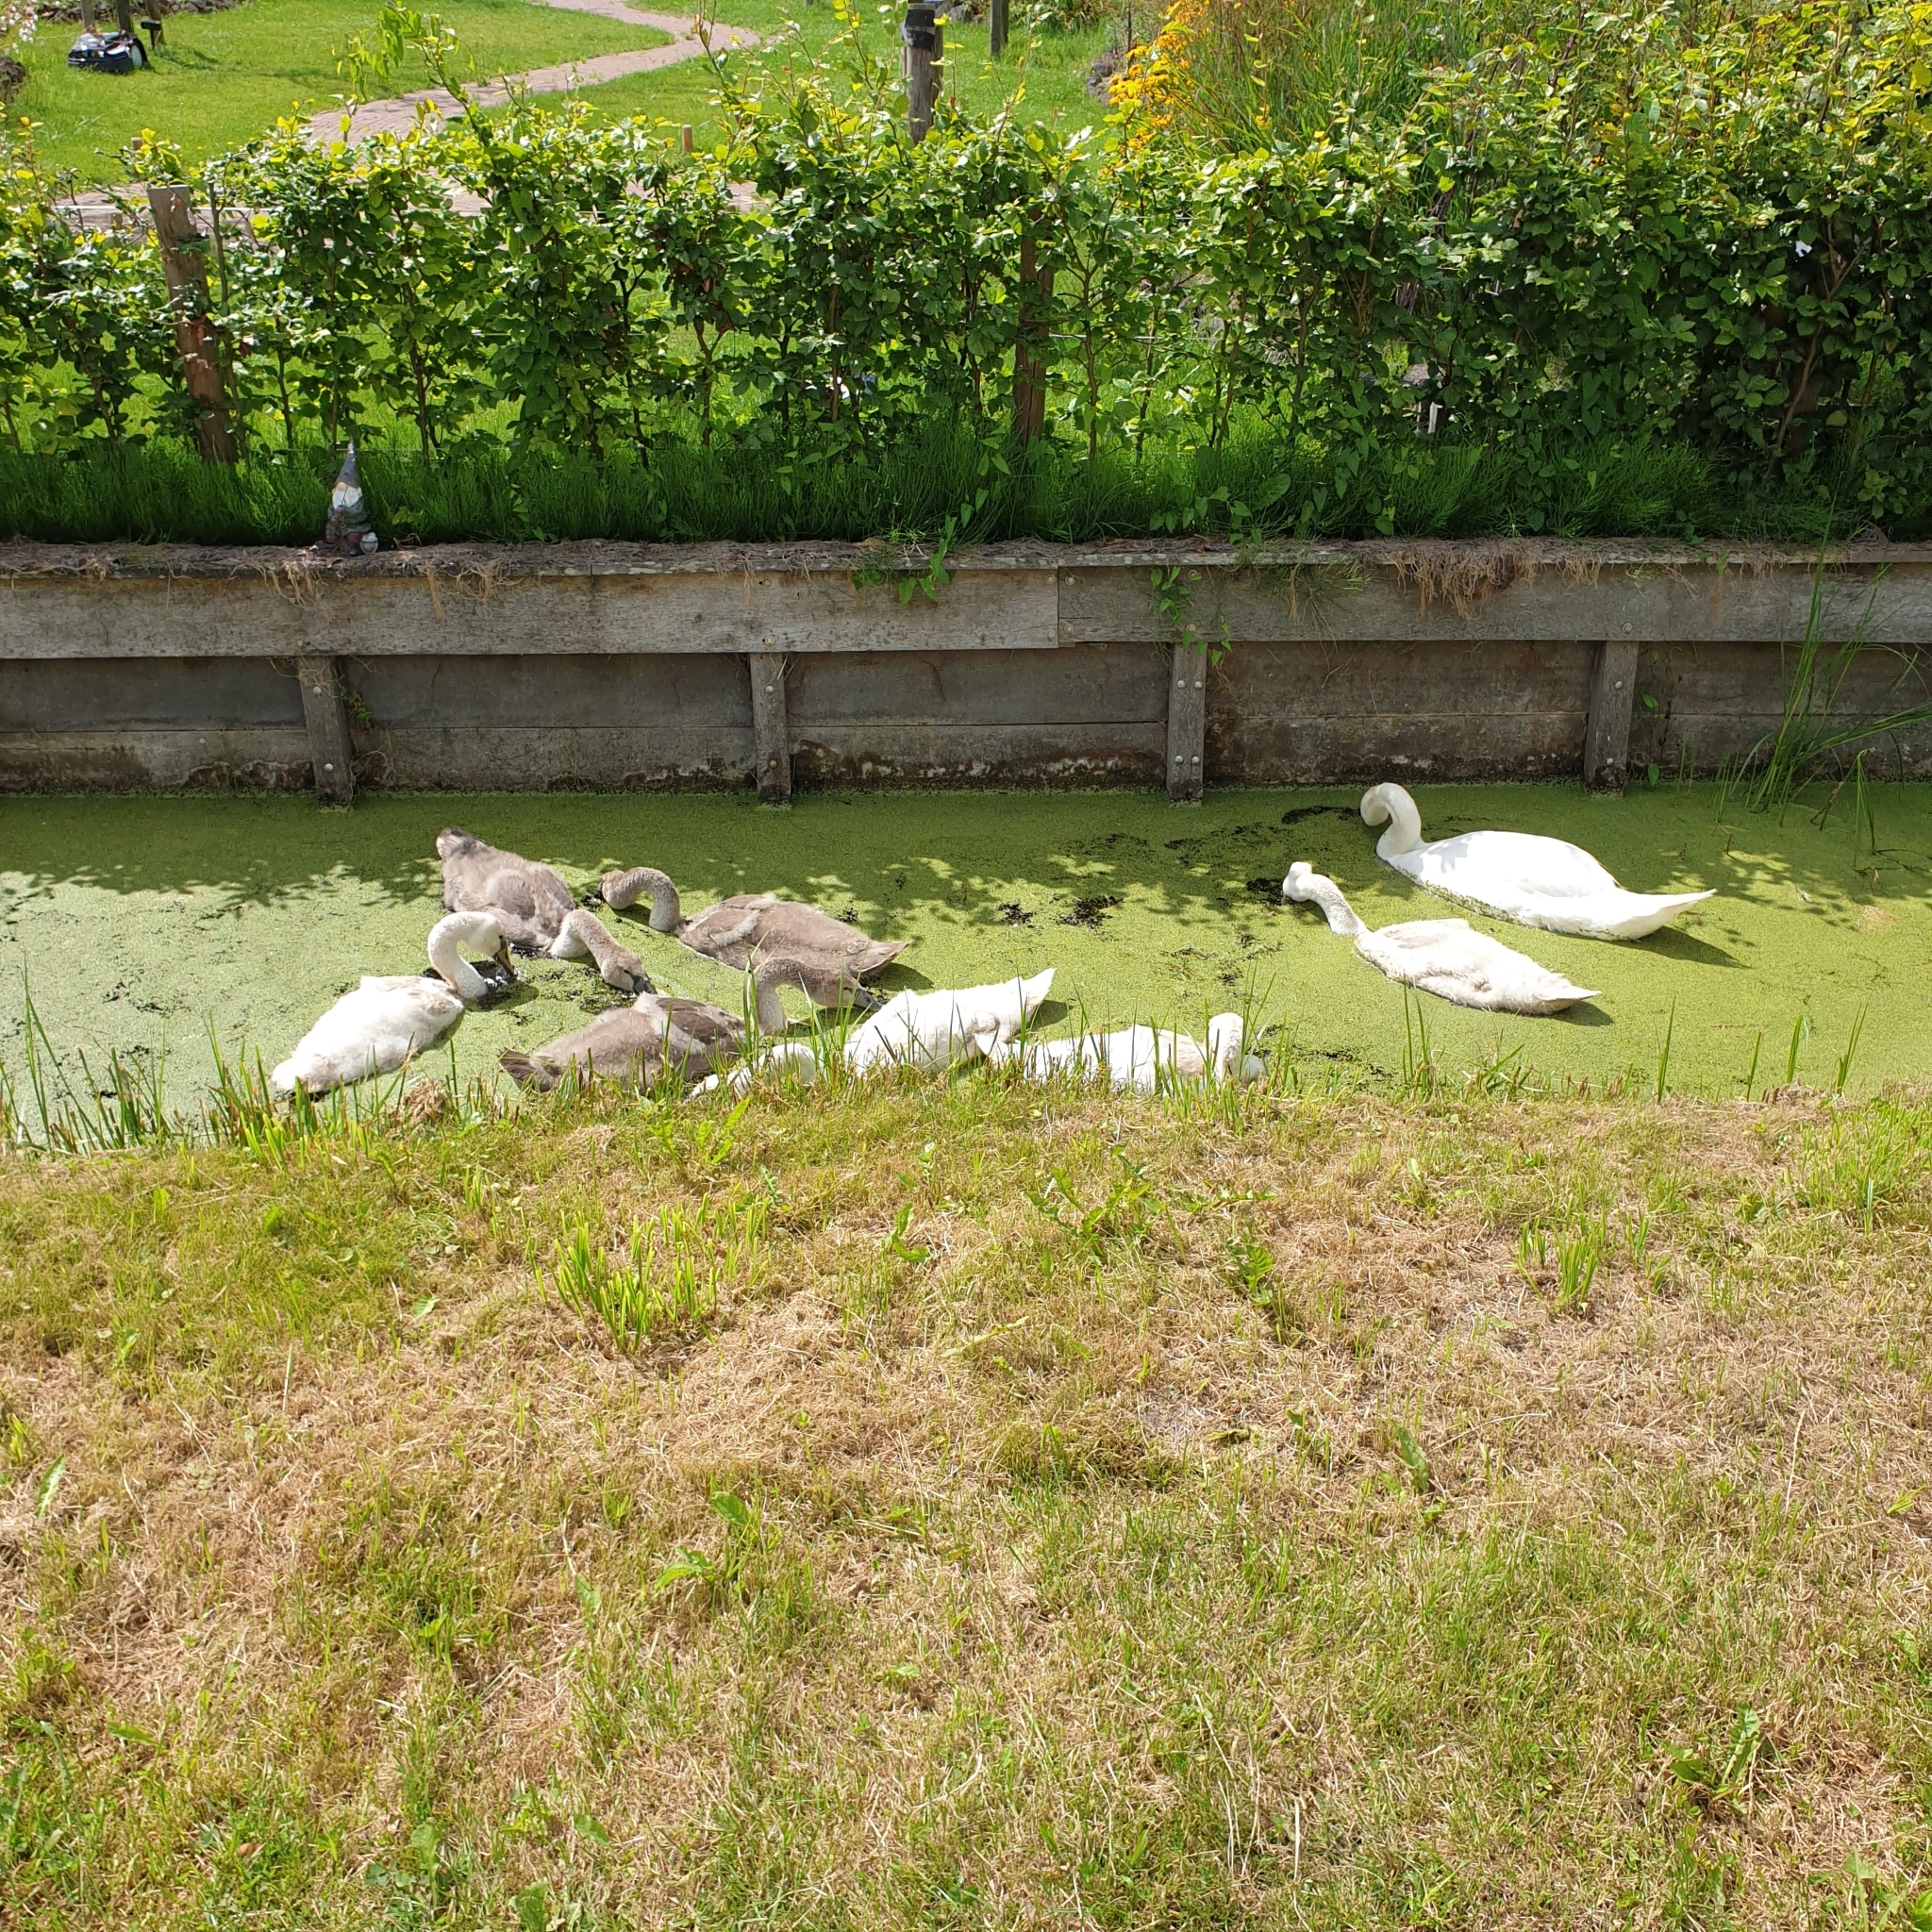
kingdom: Animalia
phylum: Chordata
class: Aves
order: Anseriformes
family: Anatidae
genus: Cygnus
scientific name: Cygnus olor
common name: Mute swan
